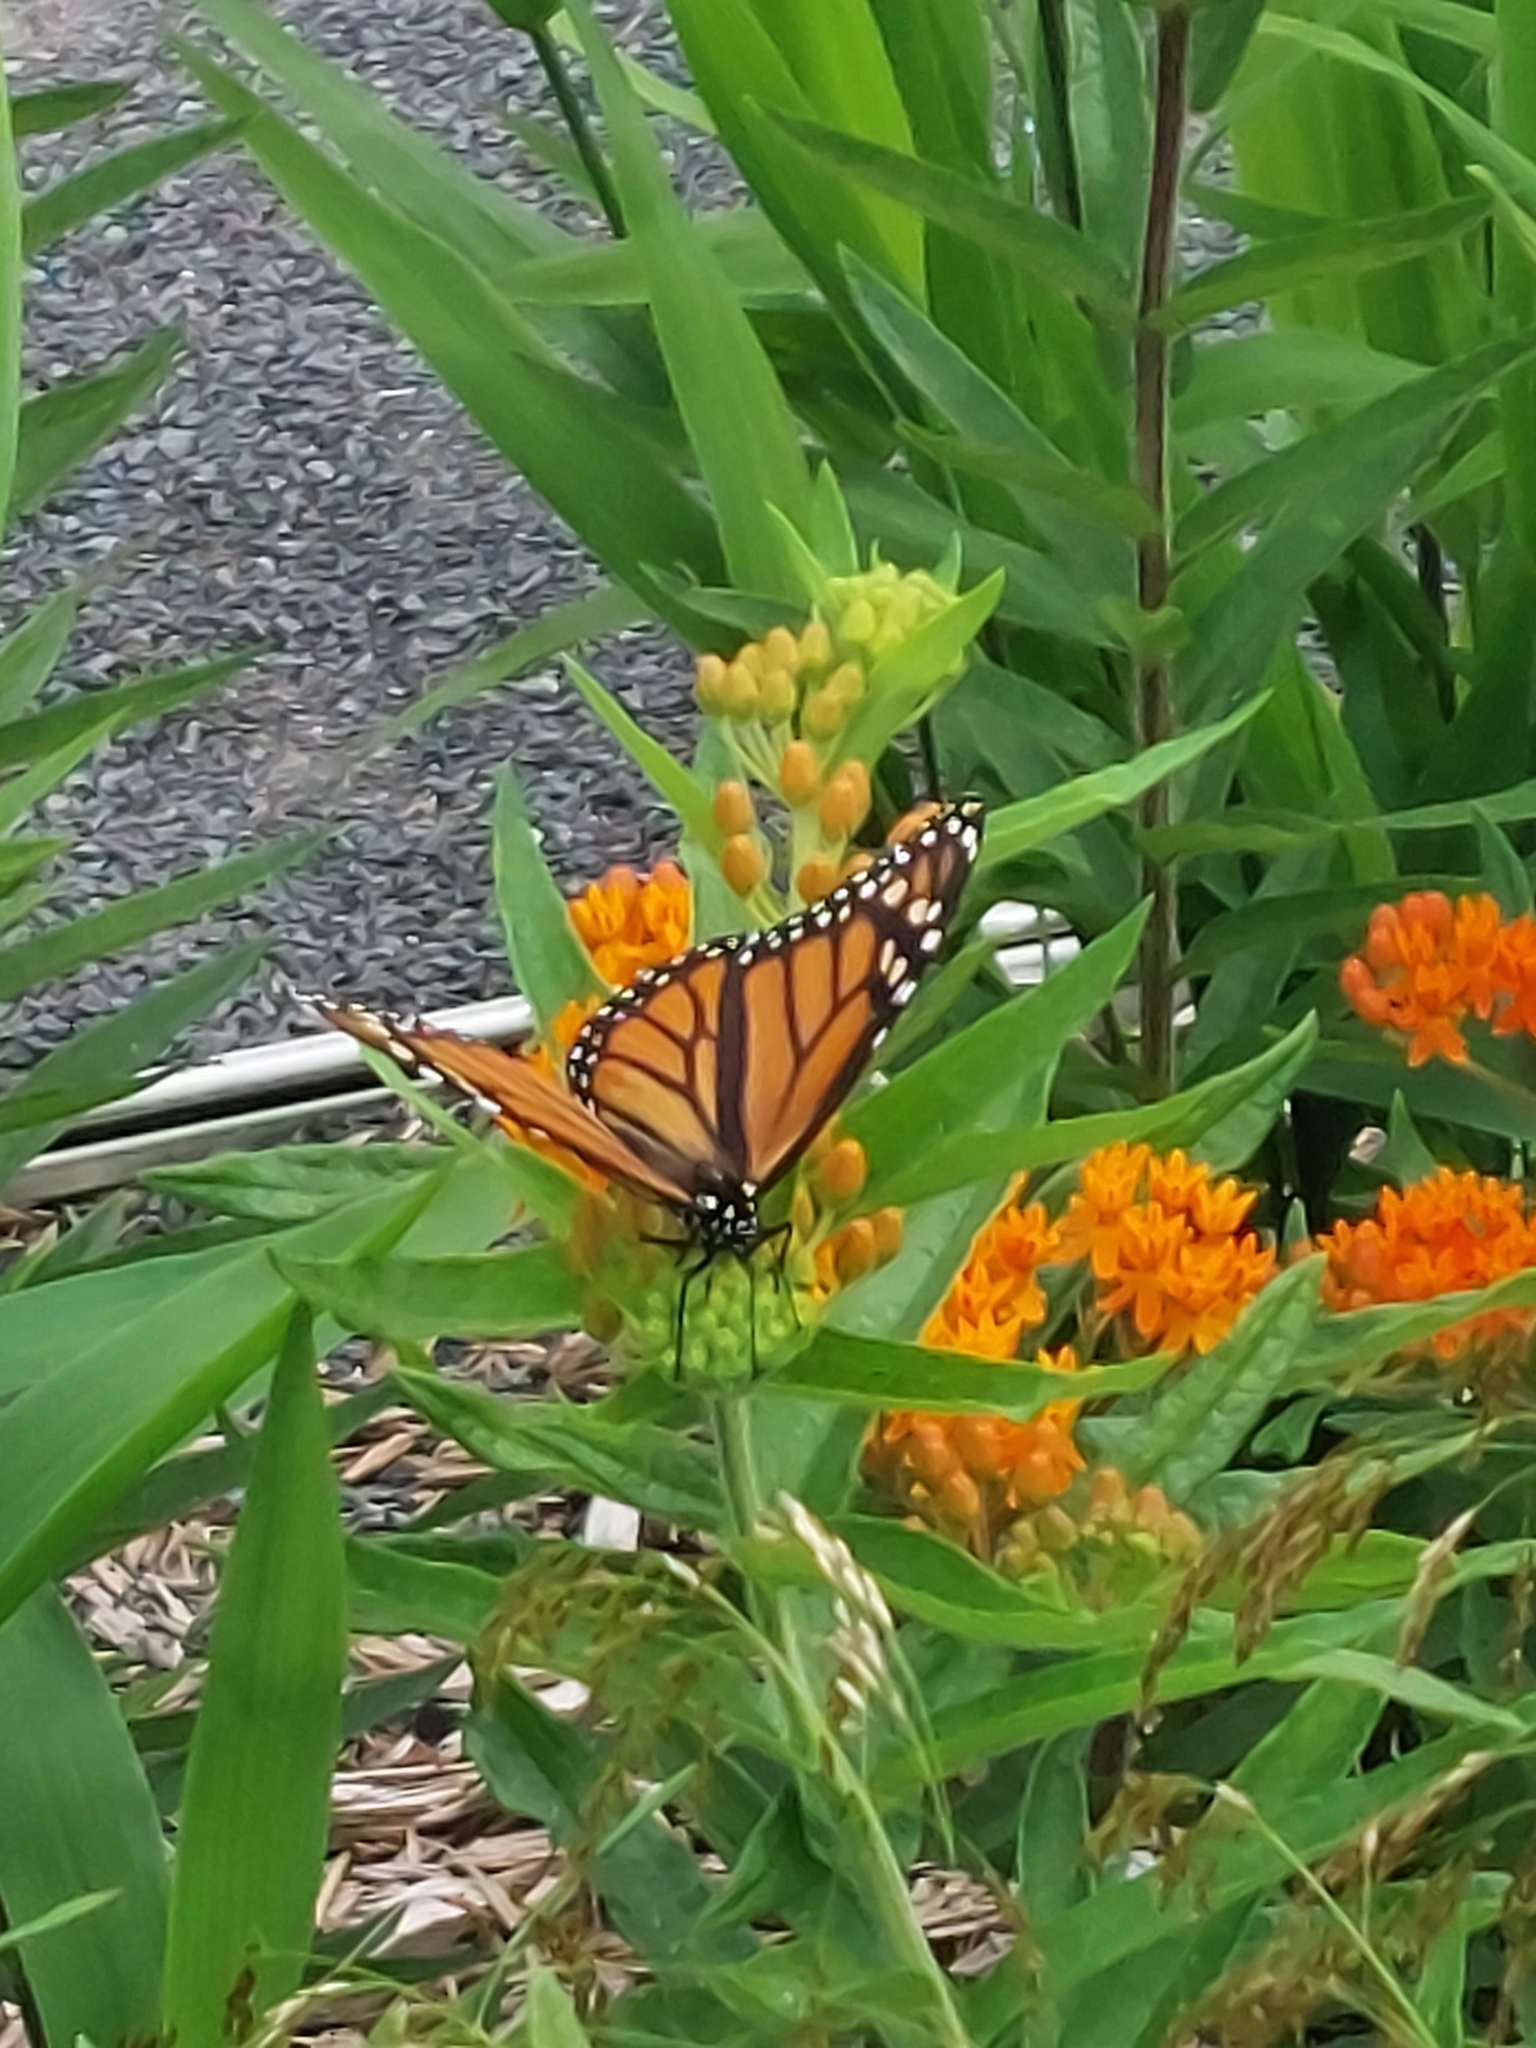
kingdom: Animalia
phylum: Arthropoda
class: Insecta
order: Lepidoptera
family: Nymphalidae
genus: Danaus
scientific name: Danaus plexippus
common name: Monarch
